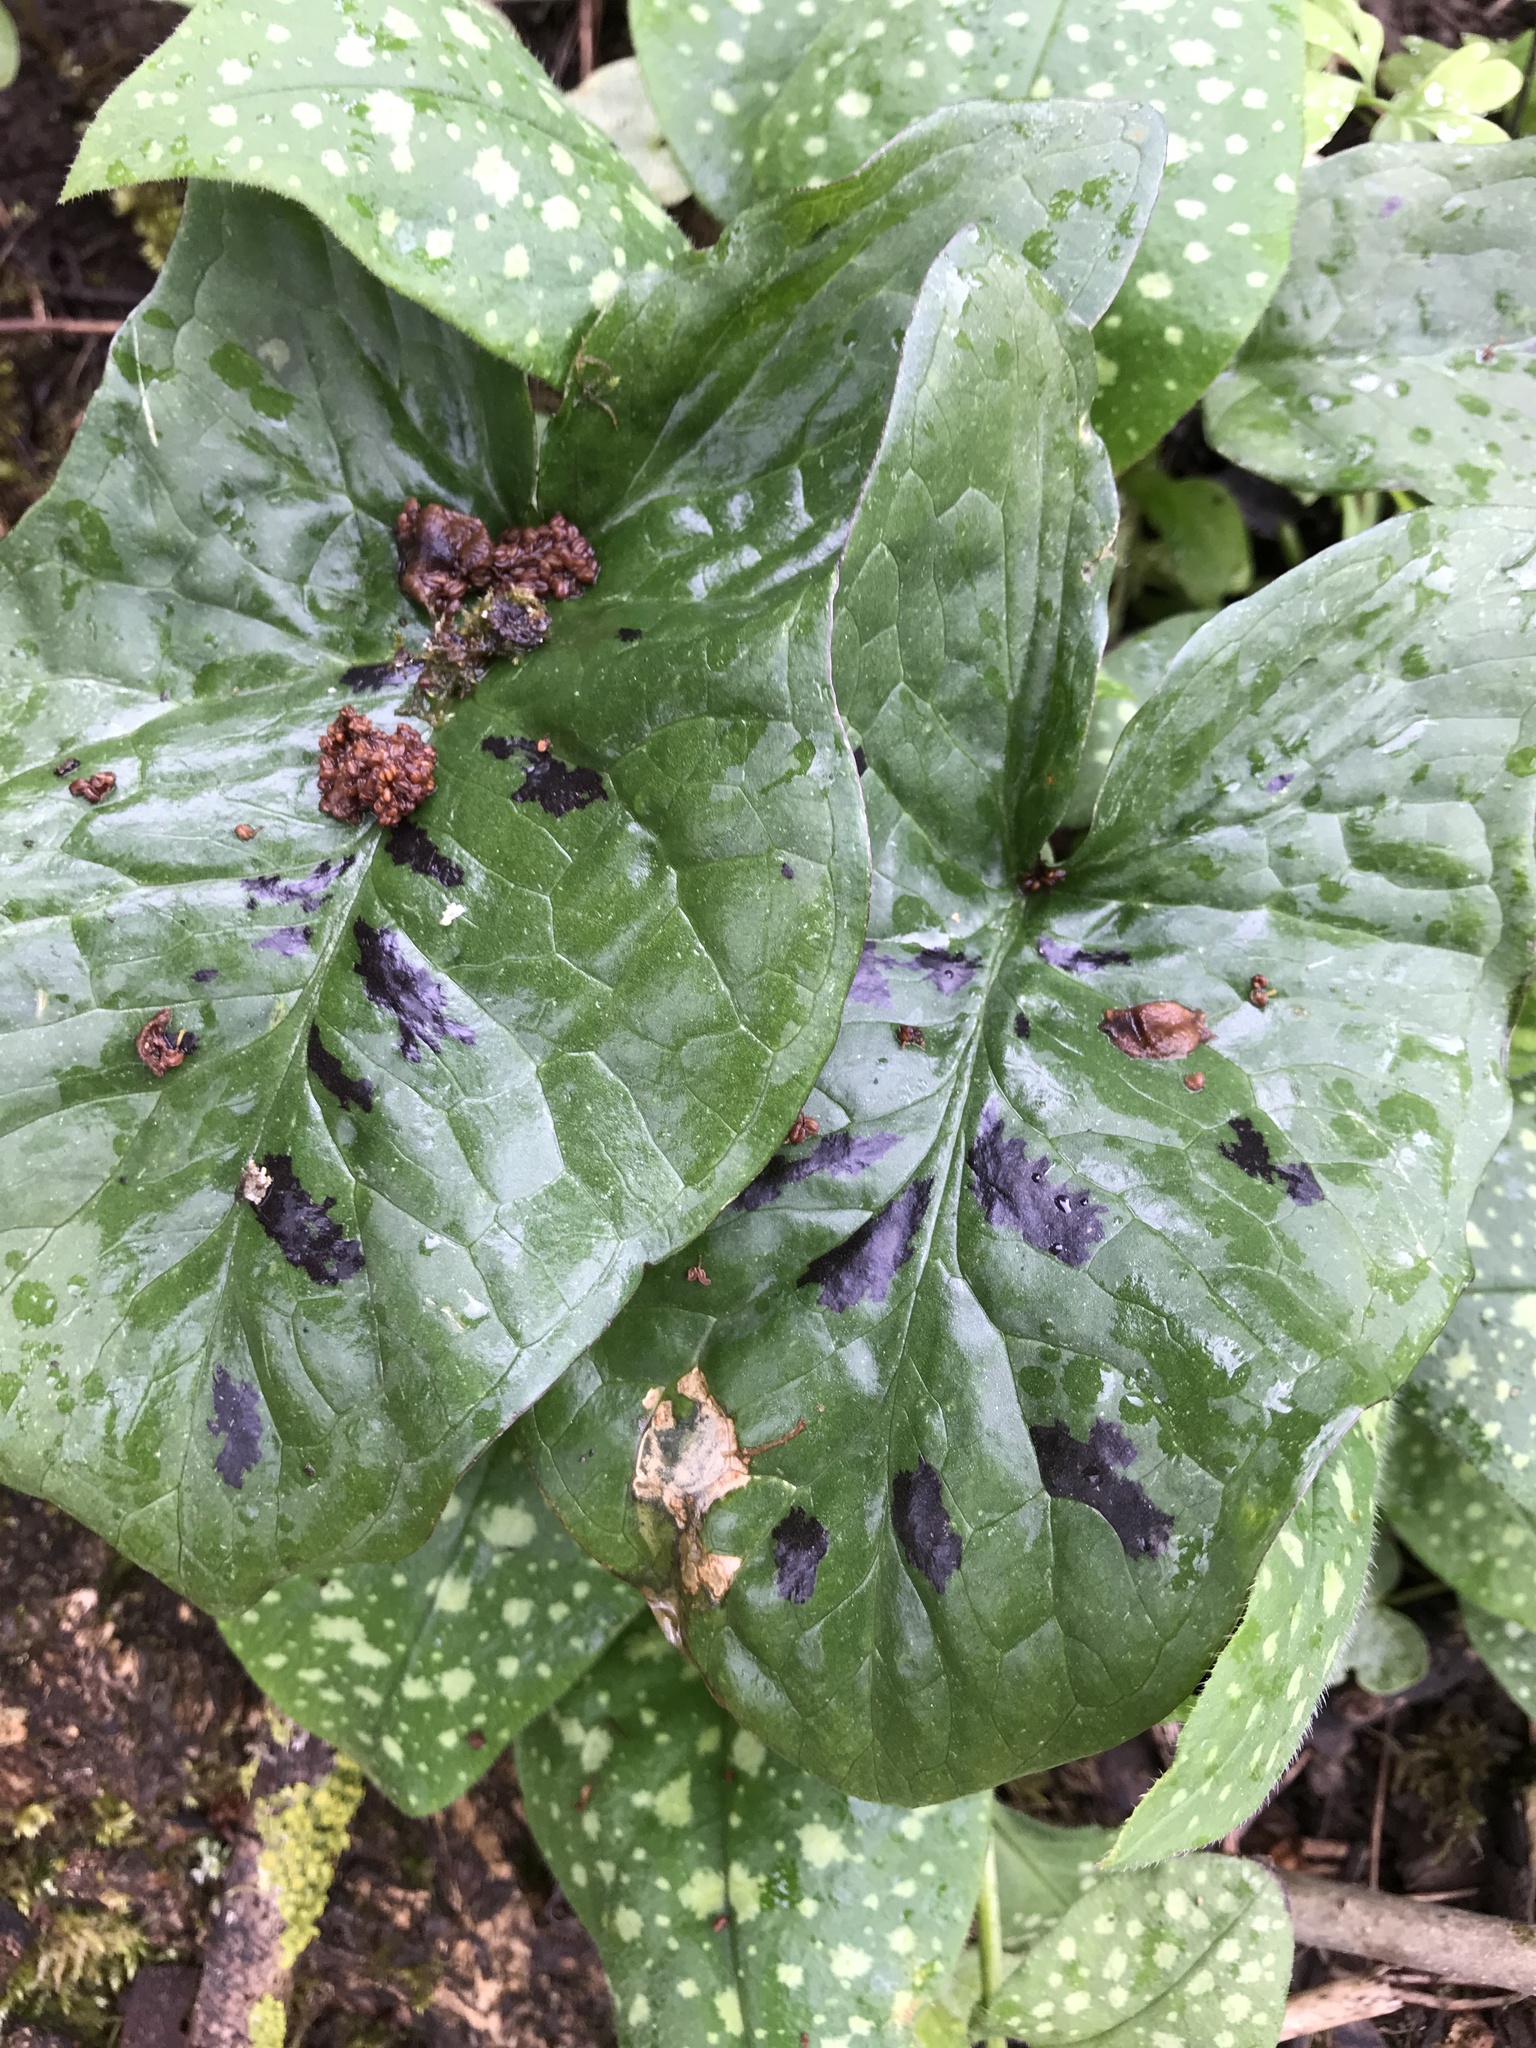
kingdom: Plantae
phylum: Tracheophyta
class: Liliopsida
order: Alismatales
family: Araceae
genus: Arum
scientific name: Arum maculatum
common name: Lords-and-ladies
